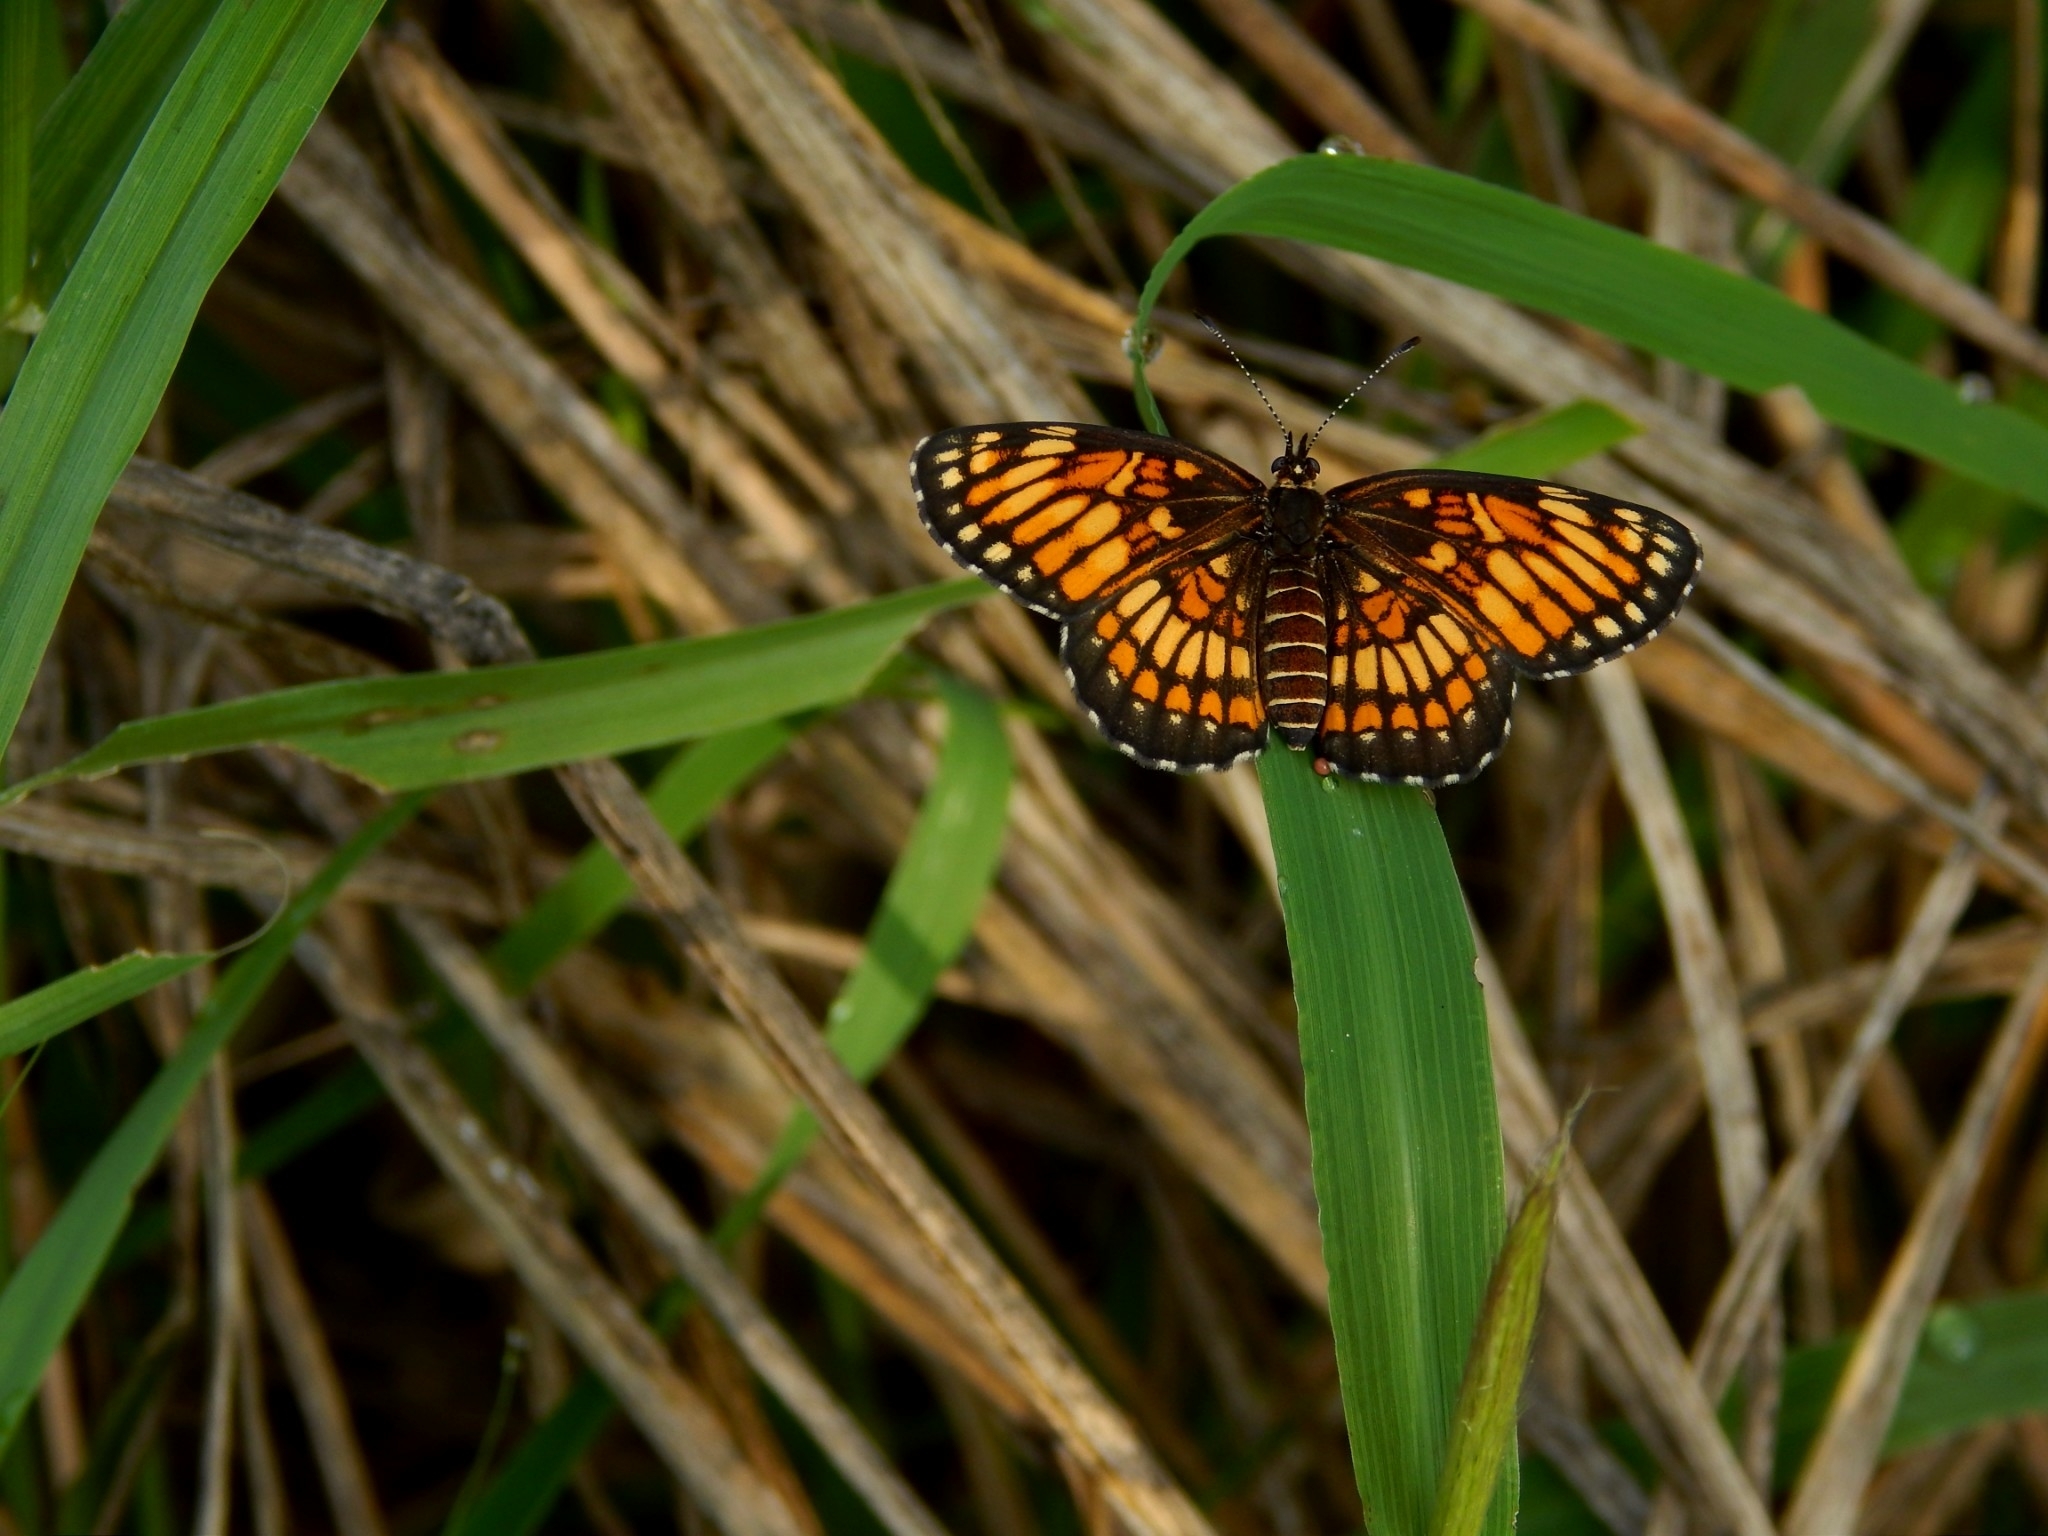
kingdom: Animalia
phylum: Arthropoda
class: Insecta
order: Lepidoptera
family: Nymphalidae
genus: Thessalia
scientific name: Thessalia theona
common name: Nymphalid moth
